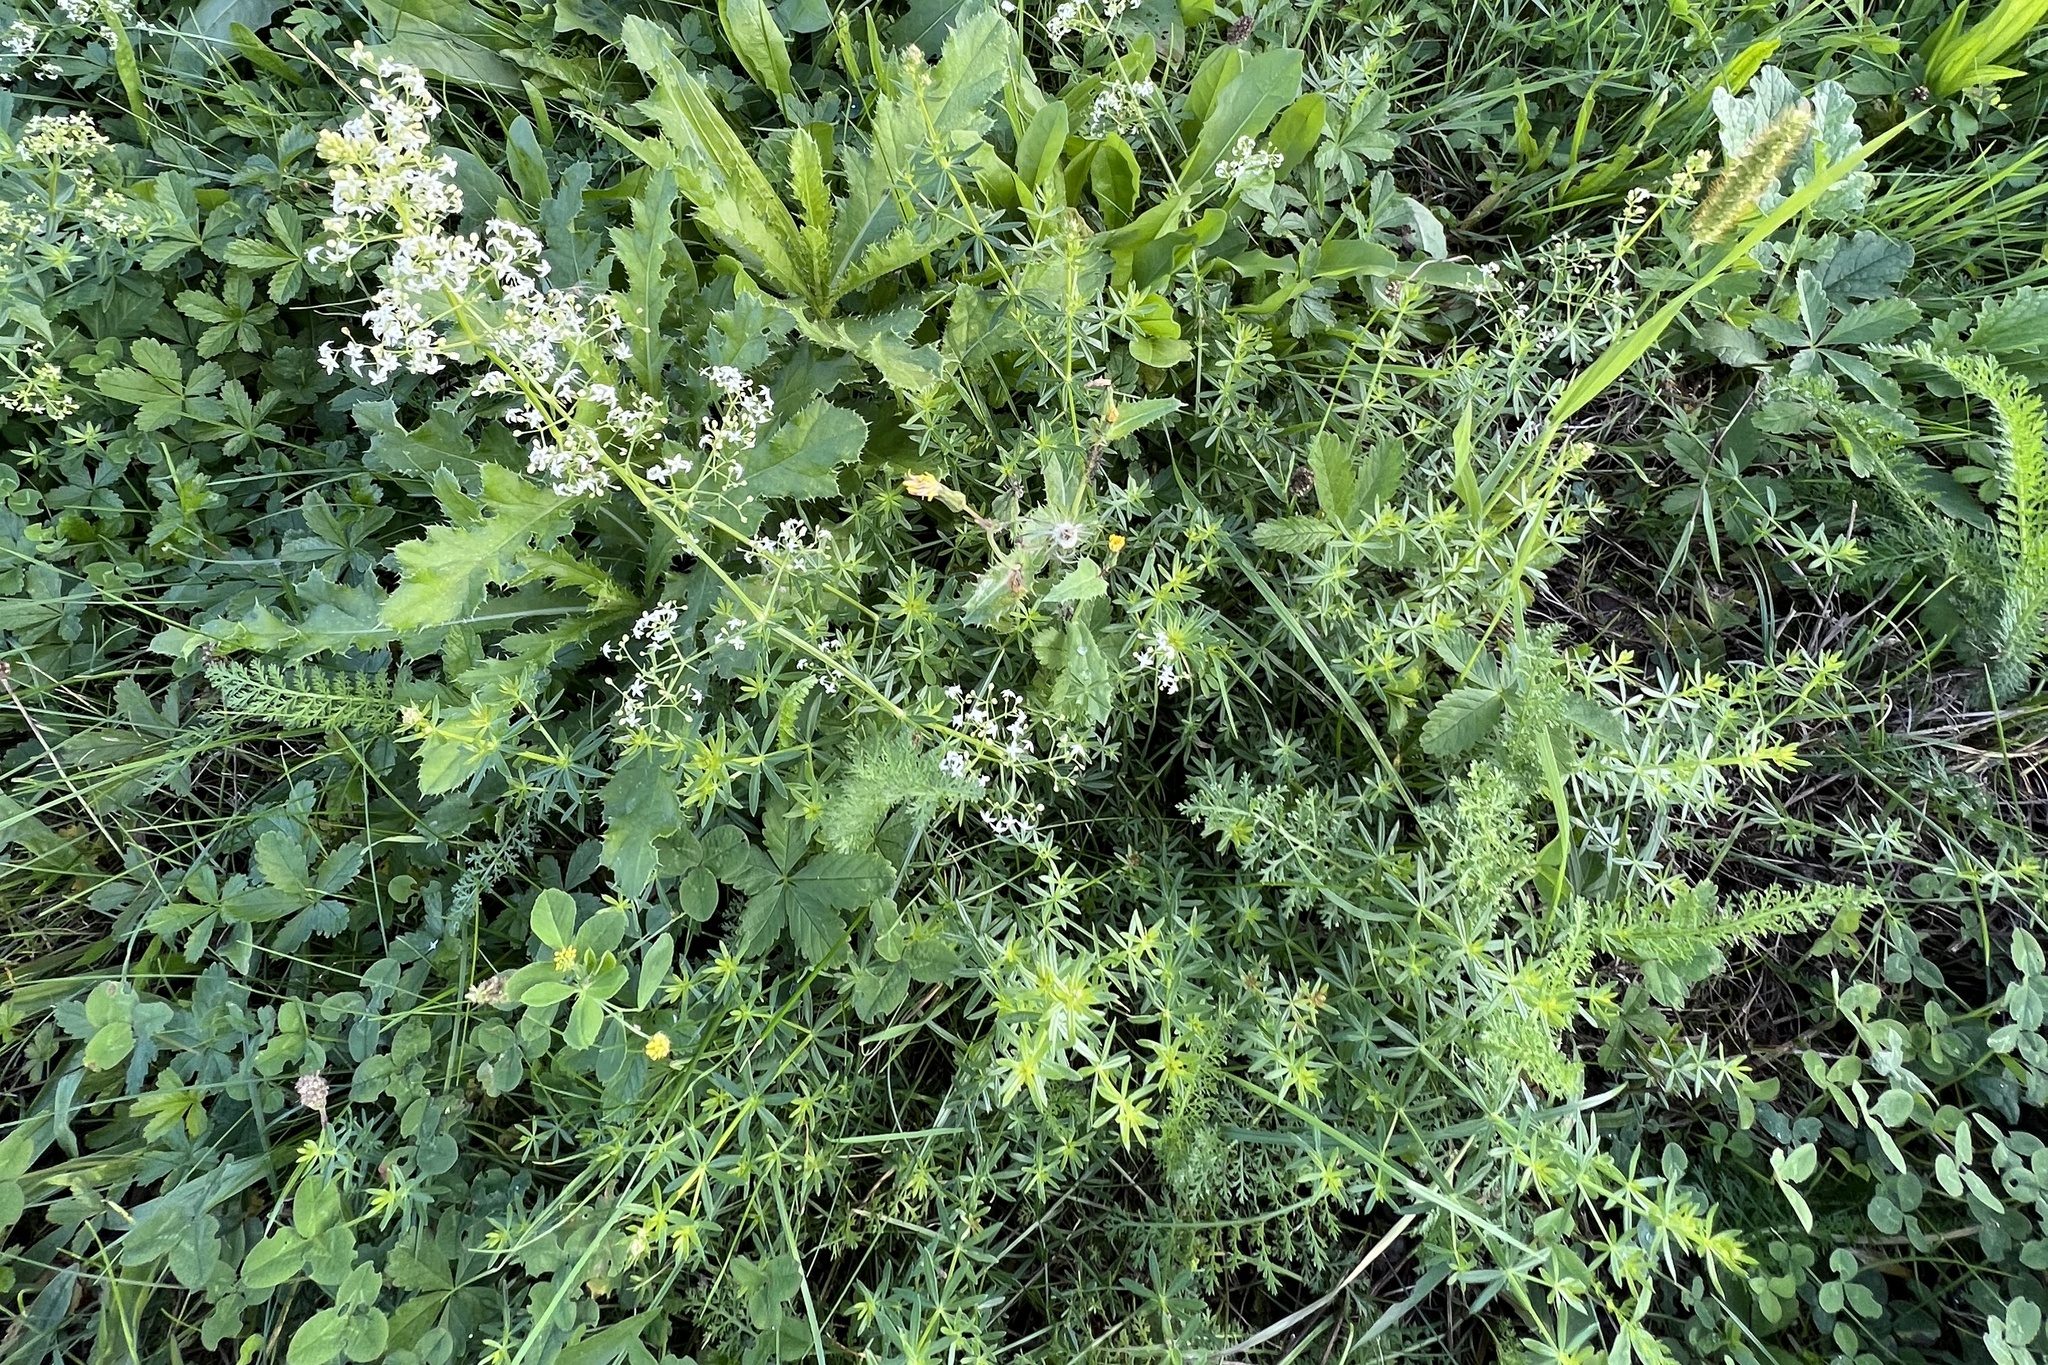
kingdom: Plantae
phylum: Tracheophyta
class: Magnoliopsida
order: Gentianales
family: Rubiaceae
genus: Galium
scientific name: Galium album
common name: White bedstraw
